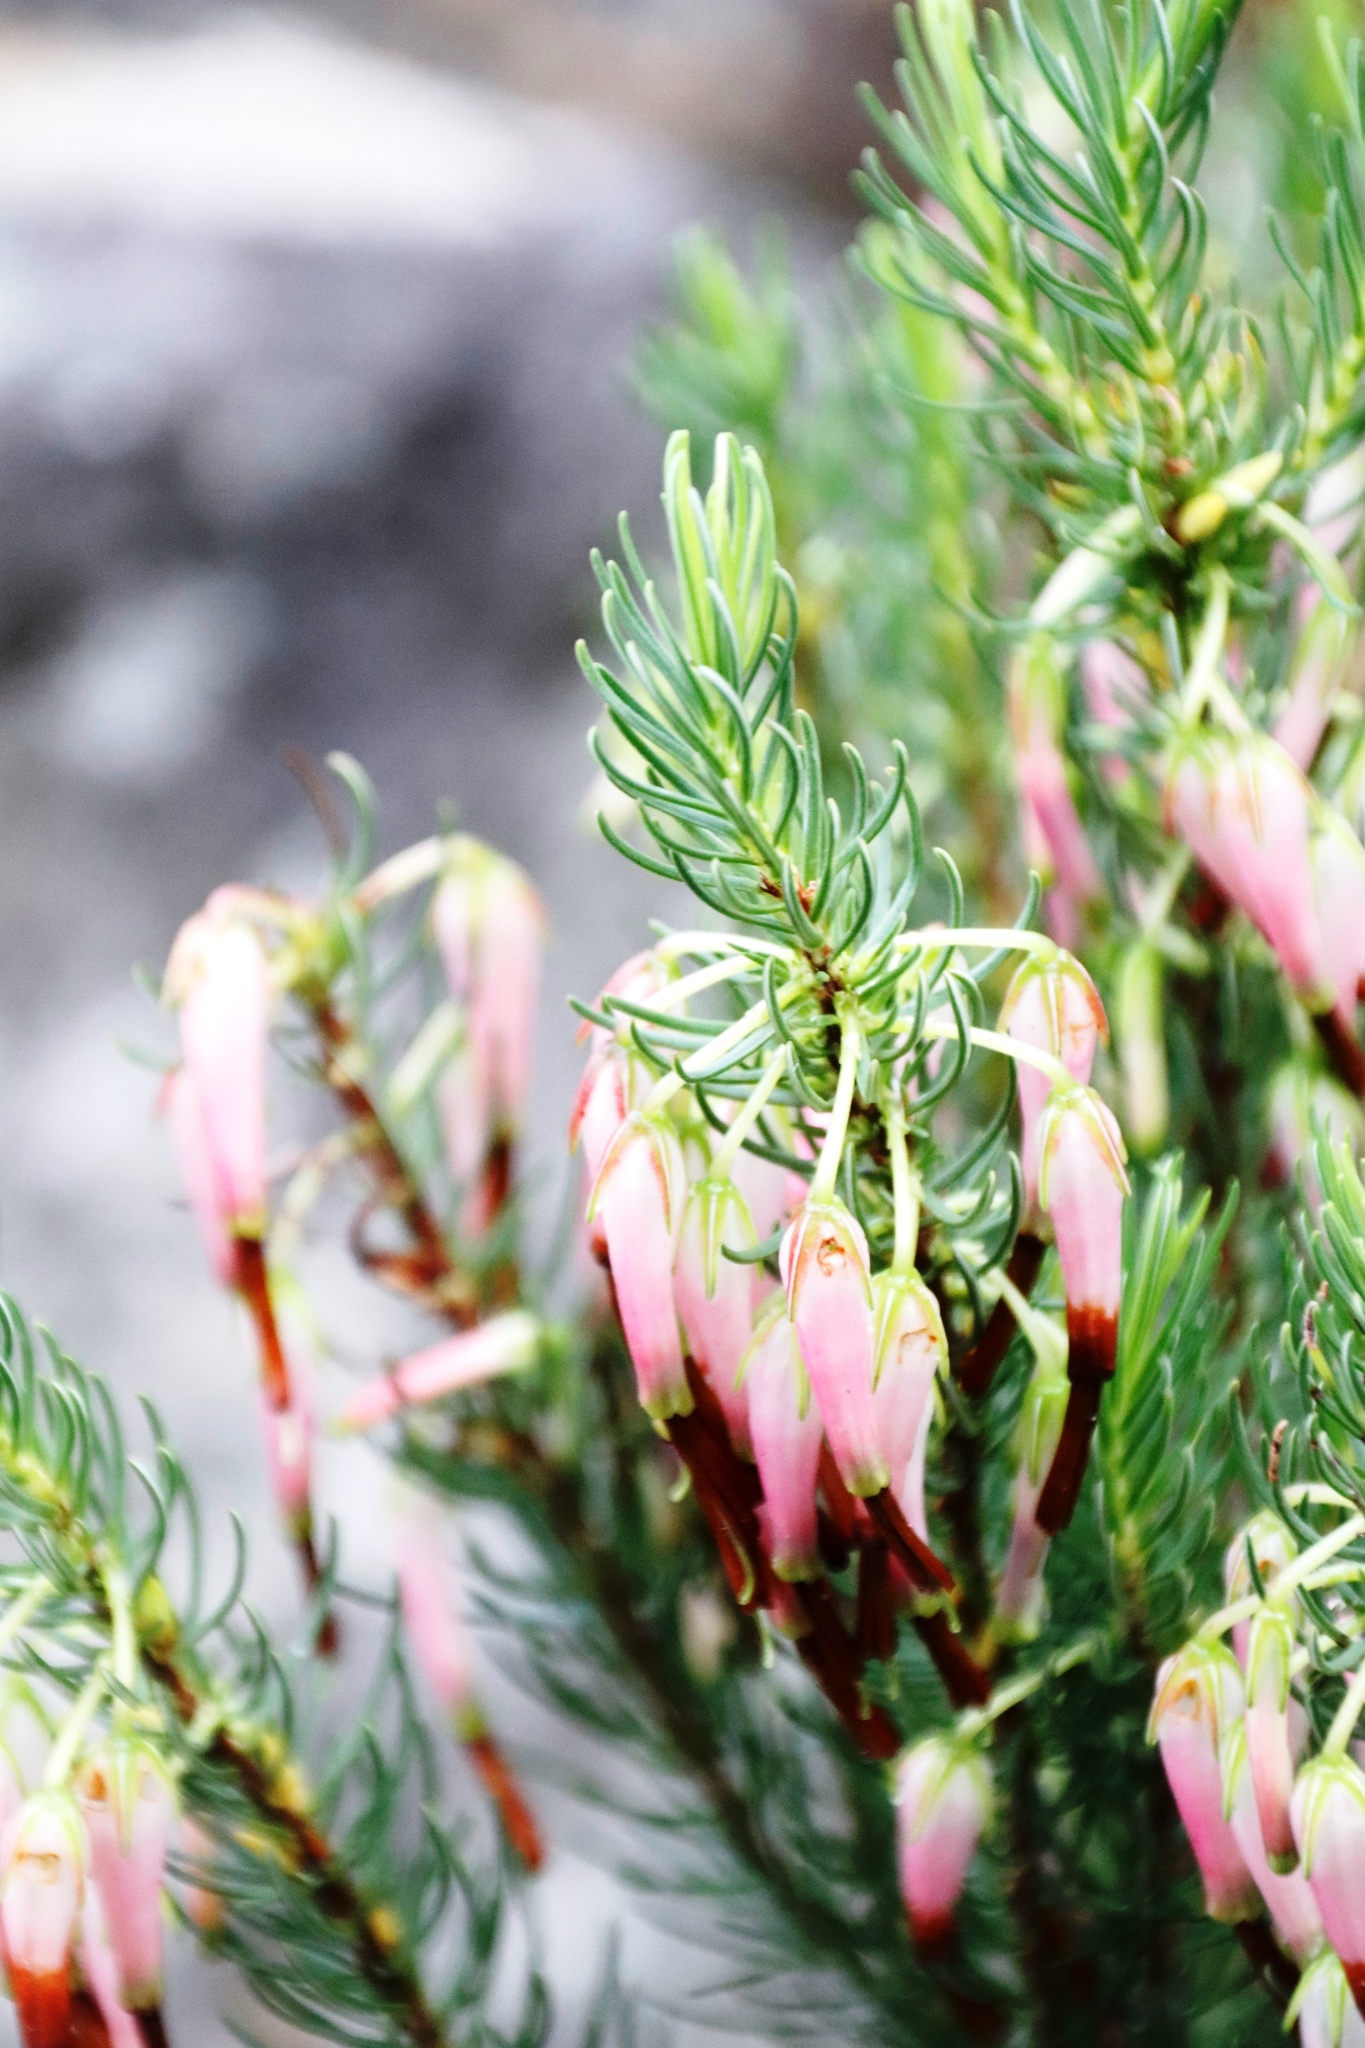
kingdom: Plantae
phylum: Tracheophyta
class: Magnoliopsida
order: Ericales
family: Ericaceae
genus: Erica
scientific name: Erica plukenetii
